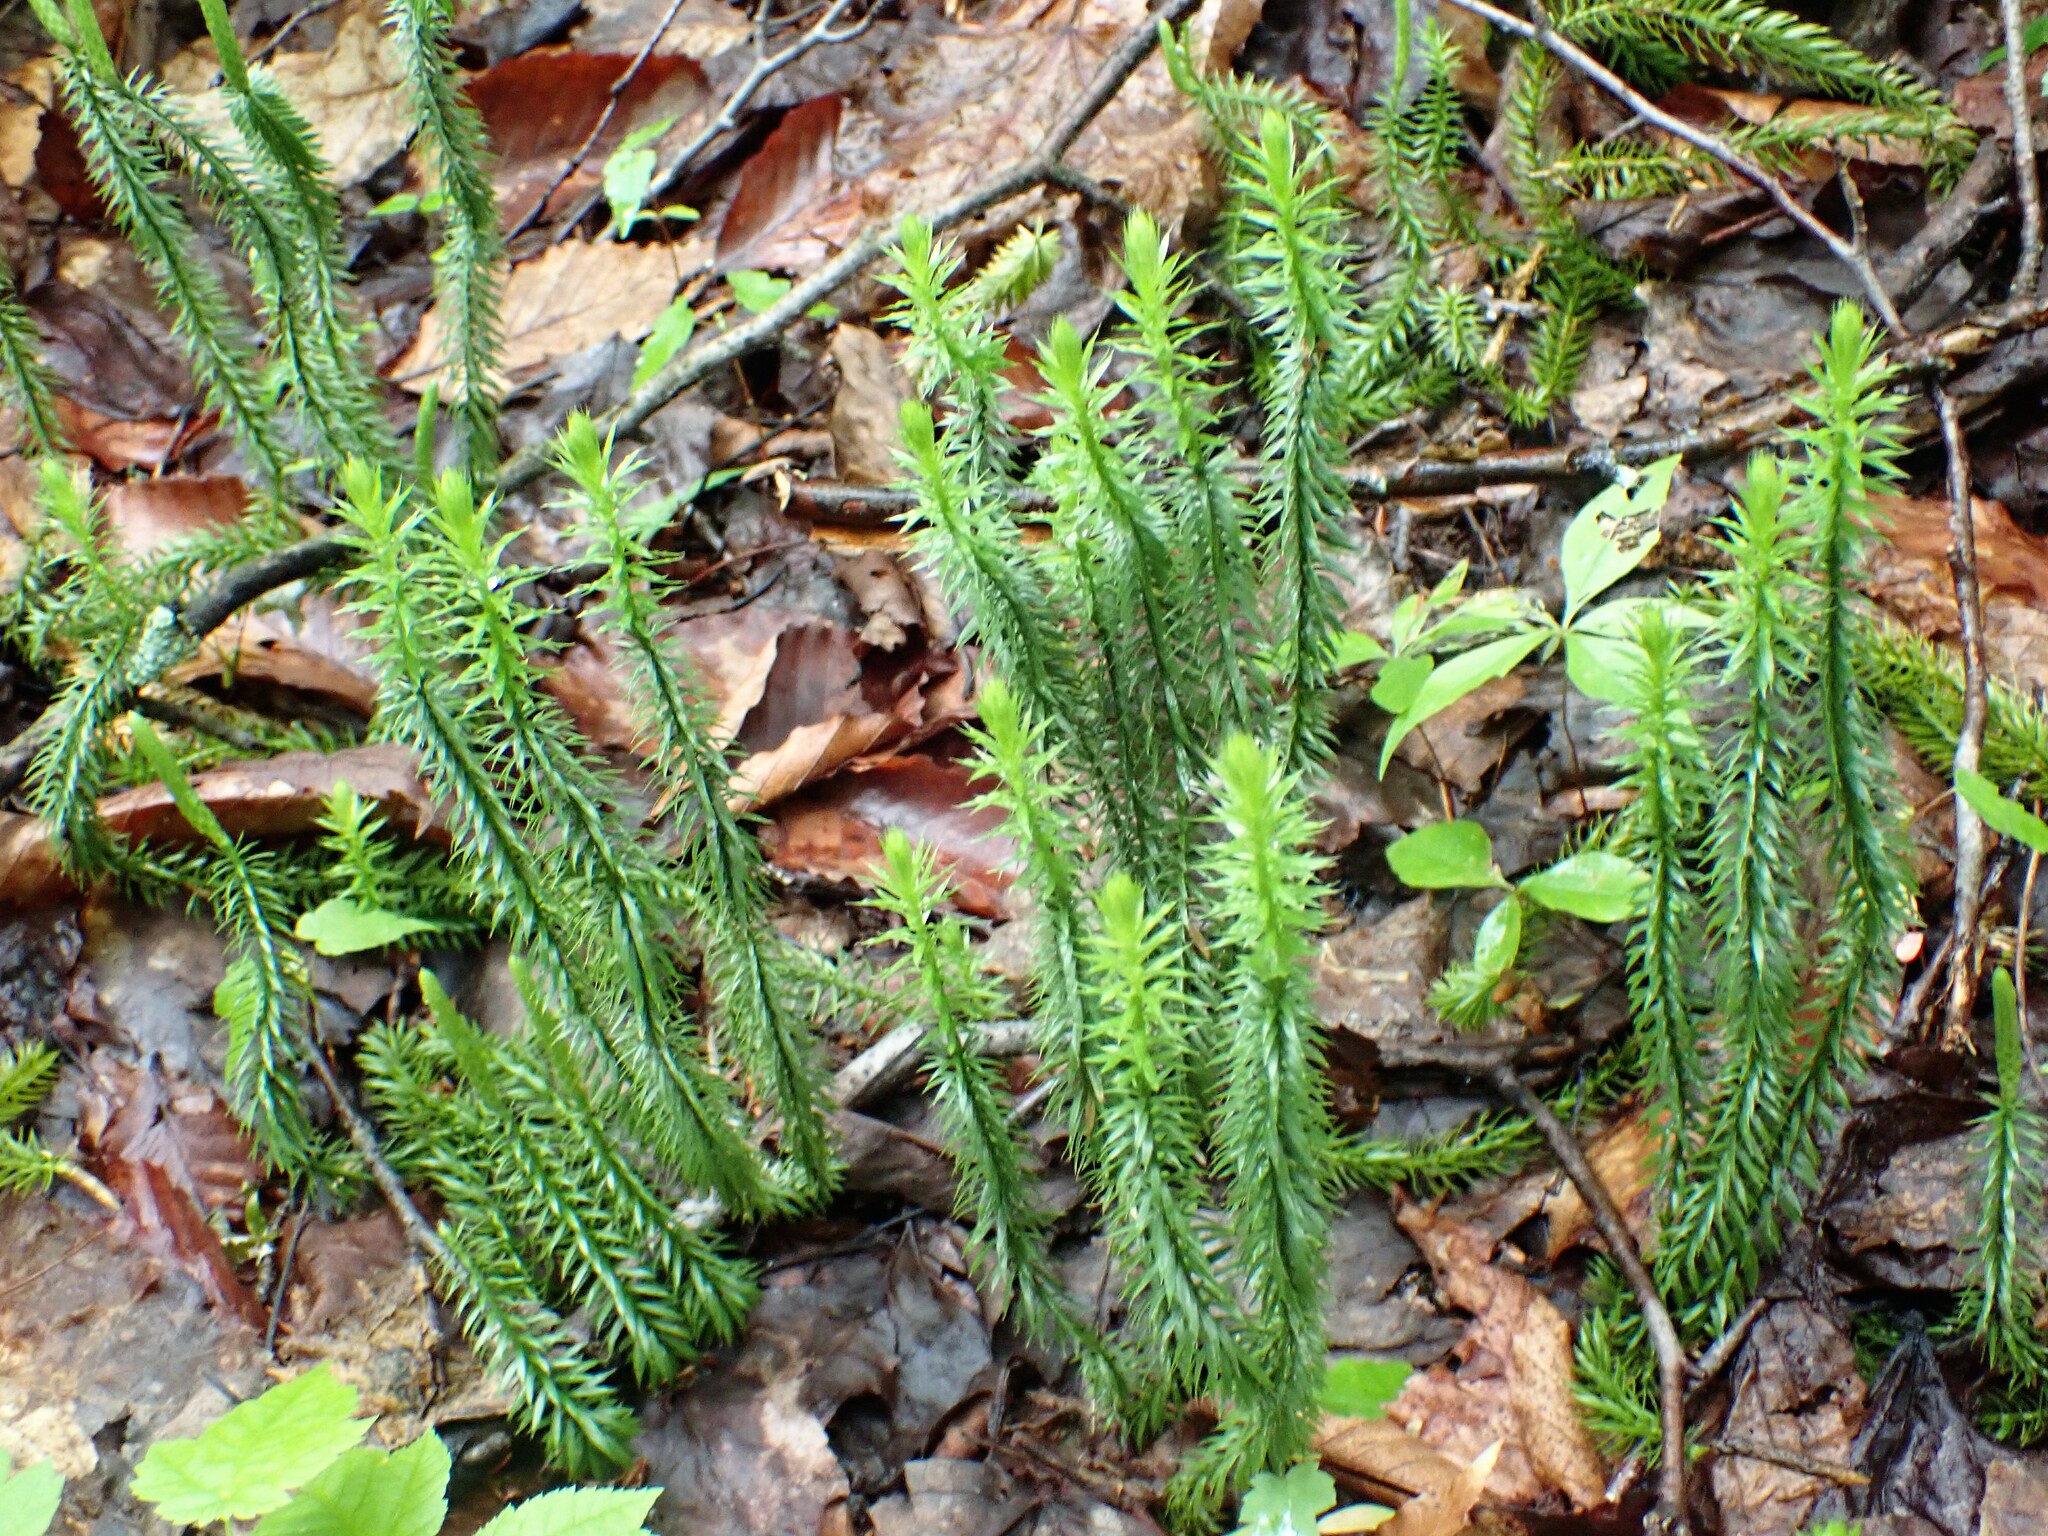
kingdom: Plantae
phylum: Tracheophyta
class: Lycopodiopsida
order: Lycopodiales
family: Lycopodiaceae
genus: Spinulum
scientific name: Spinulum annotinum
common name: Interrupted club-moss
